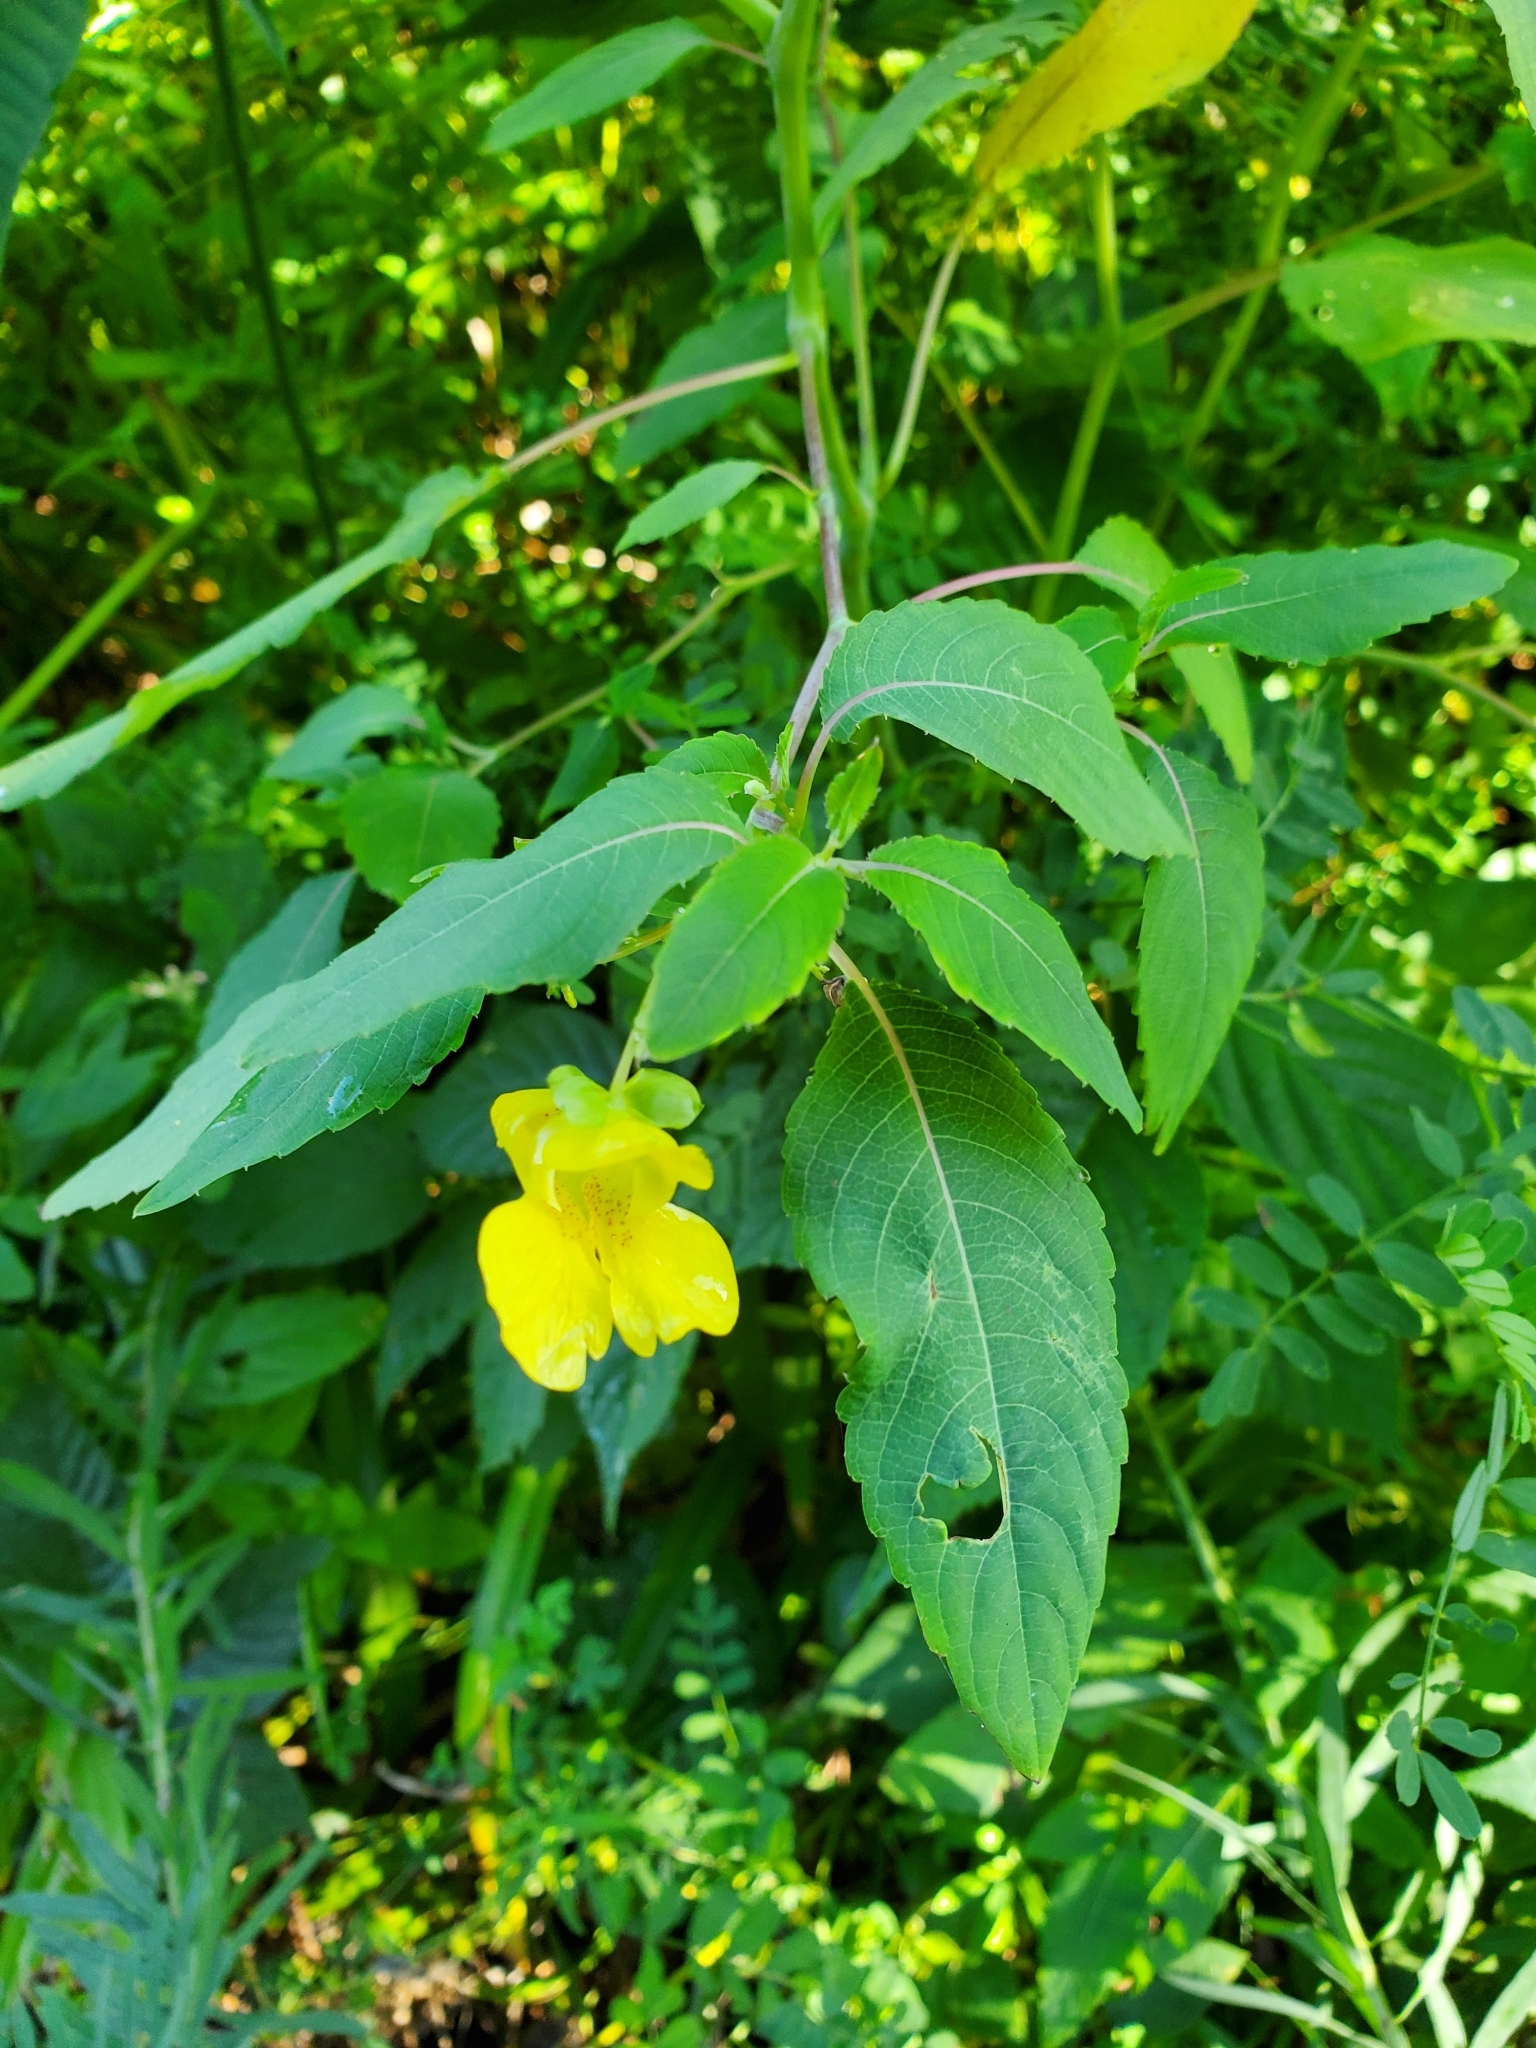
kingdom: Plantae
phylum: Tracheophyta
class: Magnoliopsida
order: Ericales
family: Balsaminaceae
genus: Impatiens
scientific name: Impatiens pallida
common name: Pale snapweed
